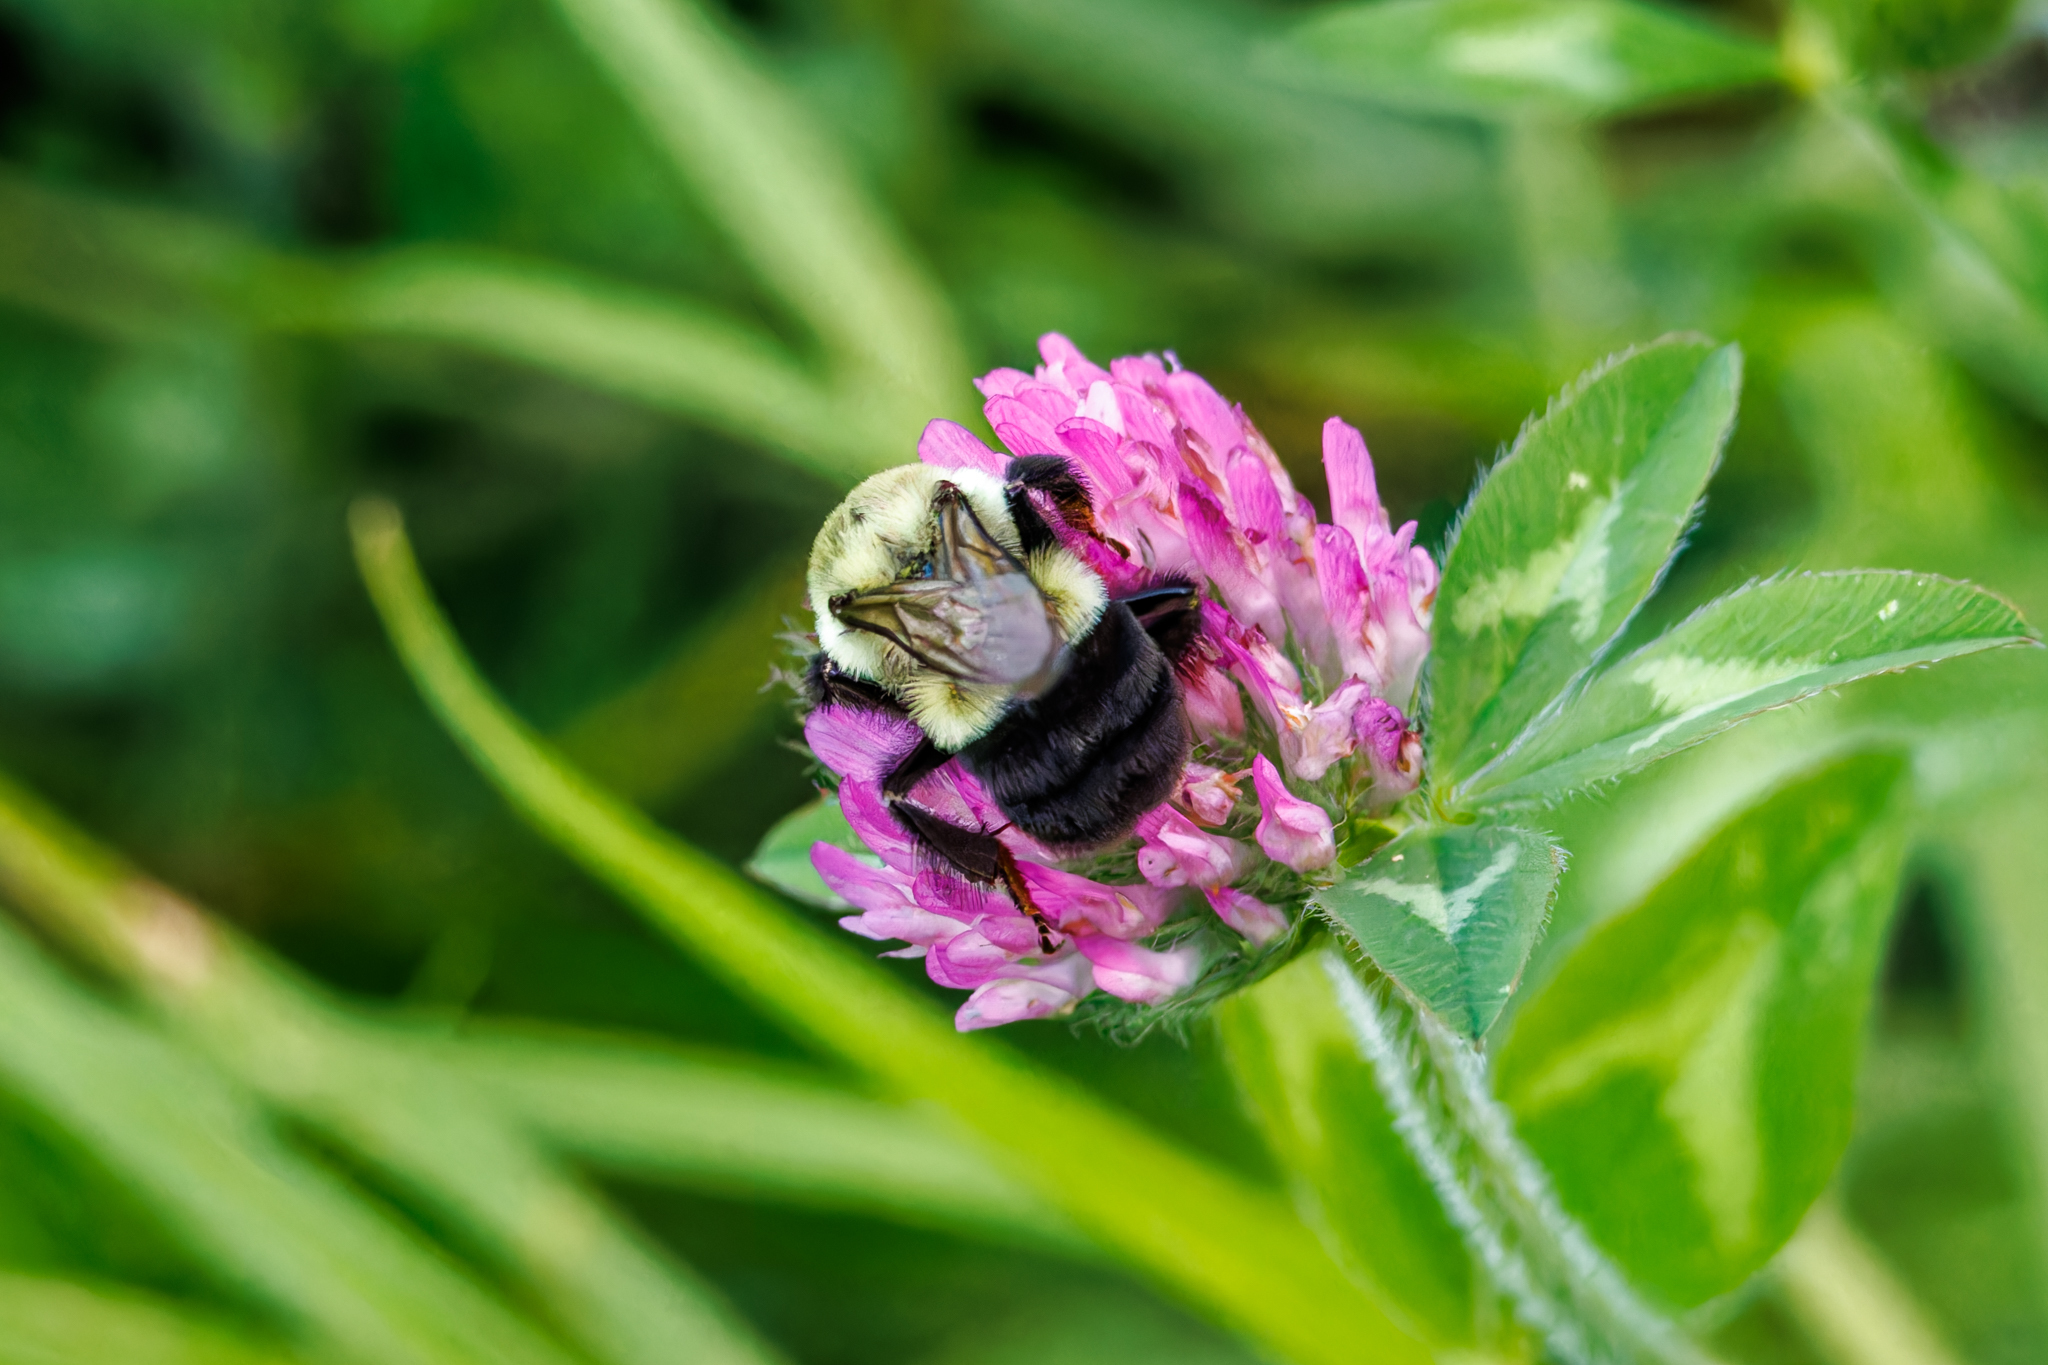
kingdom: Animalia
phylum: Arthropoda
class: Insecta
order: Hymenoptera
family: Apidae
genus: Bombus
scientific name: Bombus impatiens
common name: Common eastern bumble bee
